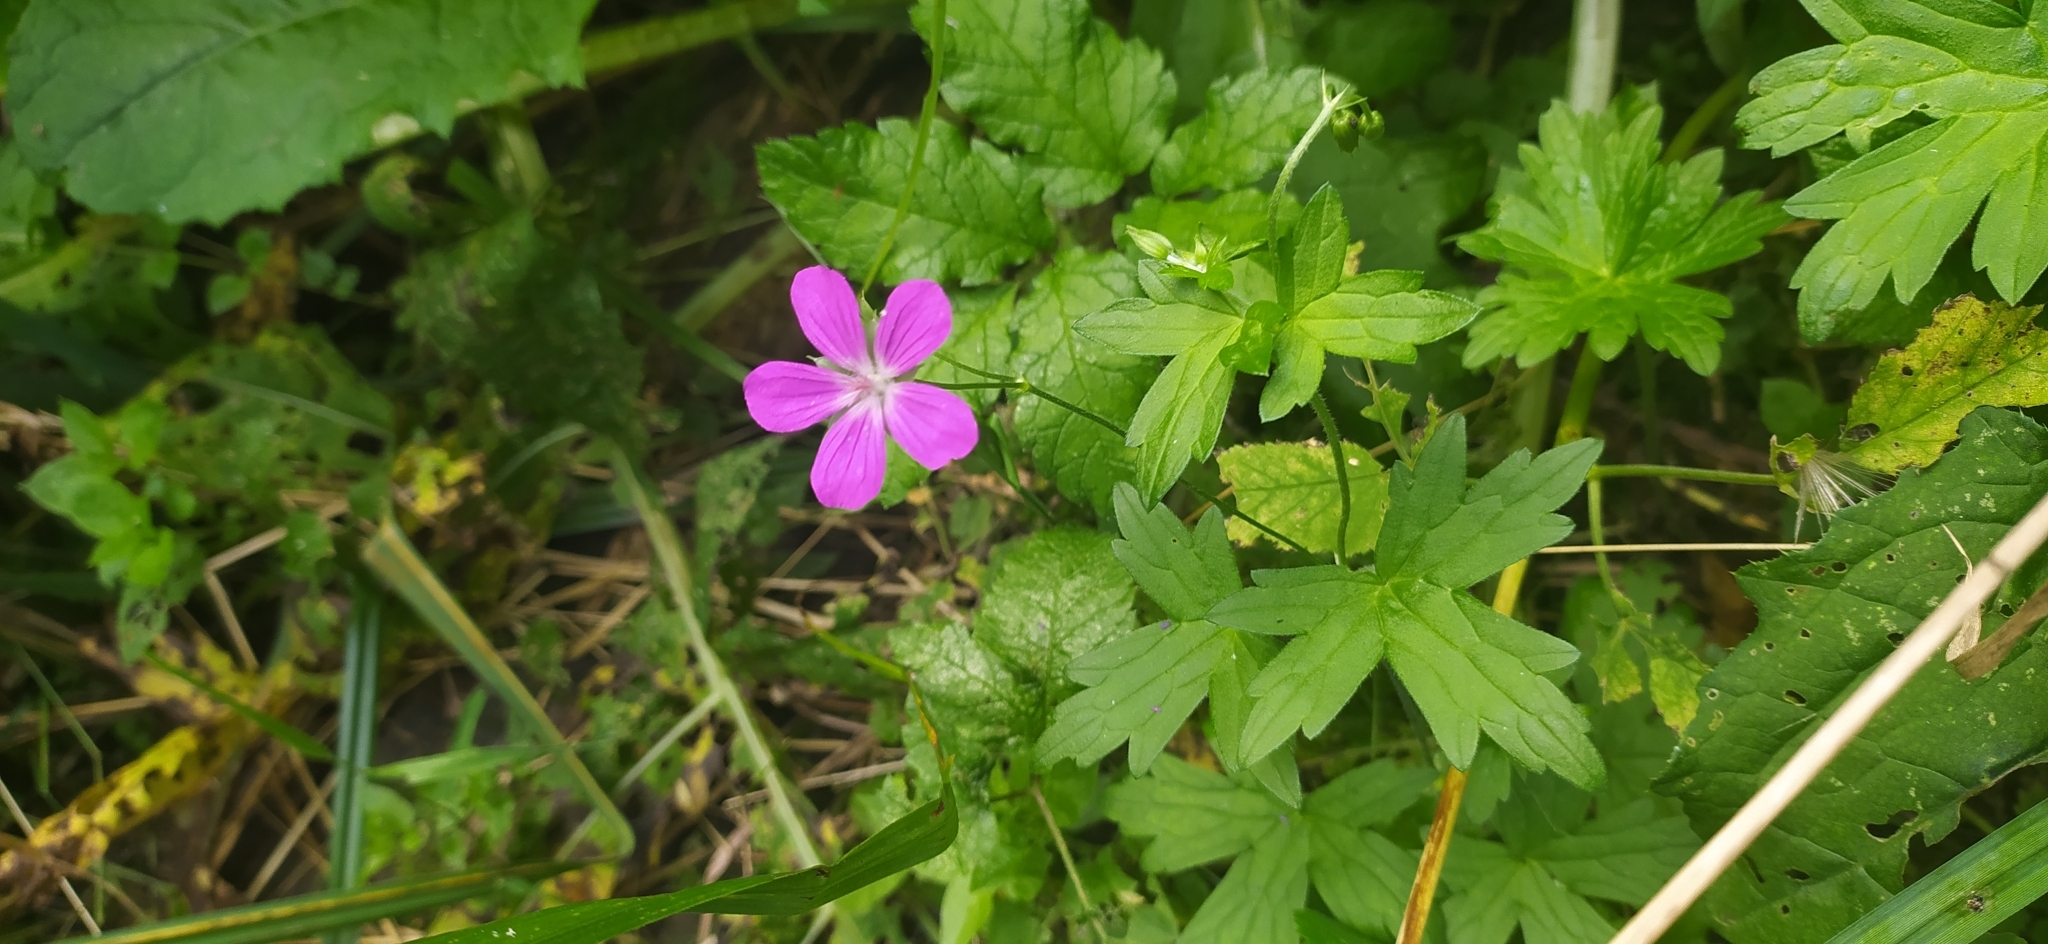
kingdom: Plantae
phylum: Tracheophyta
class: Magnoliopsida
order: Geraniales
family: Geraniaceae
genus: Geranium
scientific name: Geranium palustre
